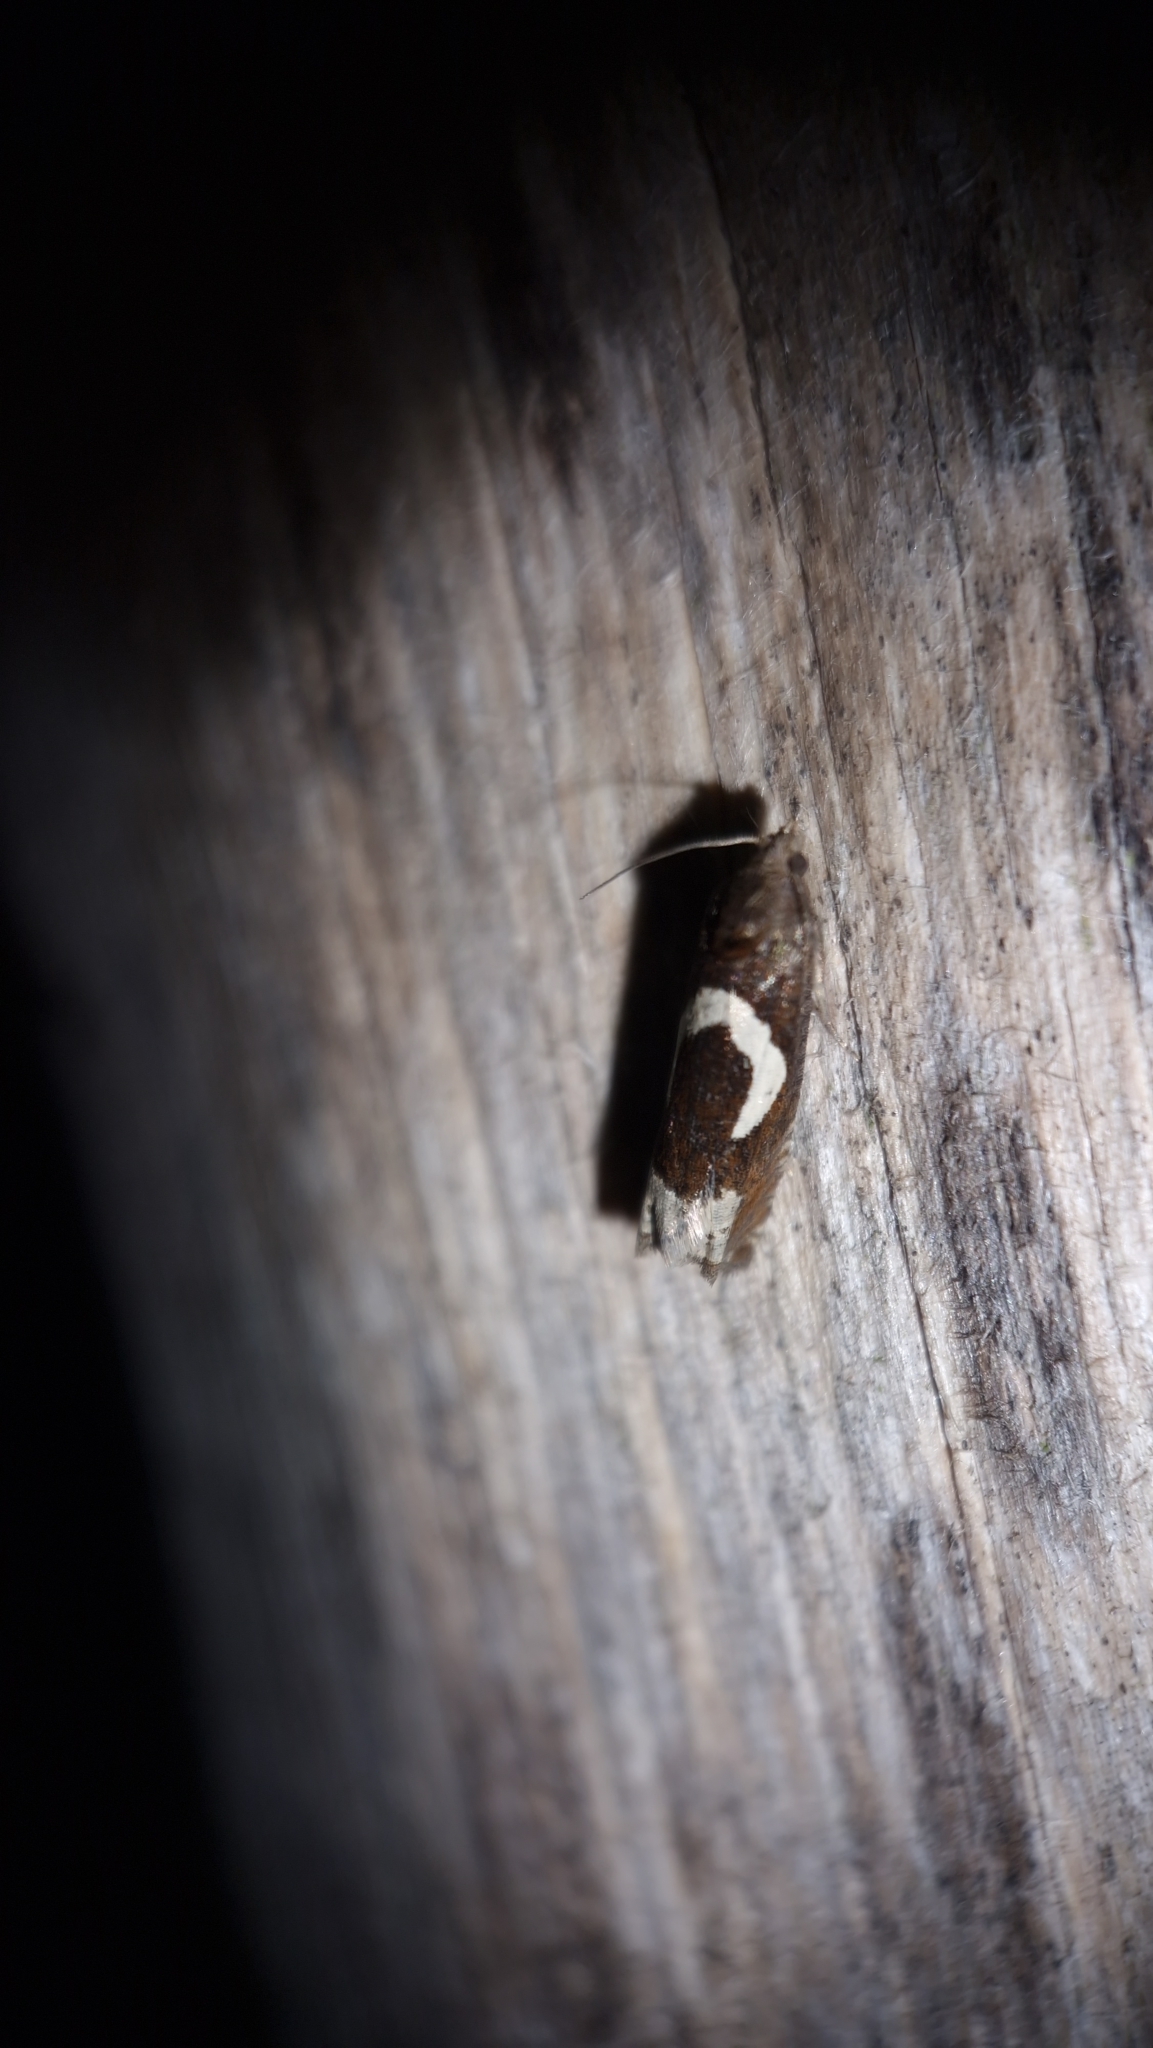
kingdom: Animalia
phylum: Arthropoda
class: Insecta
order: Lepidoptera
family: Tortricidae
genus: Epiblema
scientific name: Epiblema foenella
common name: White-foot bell
